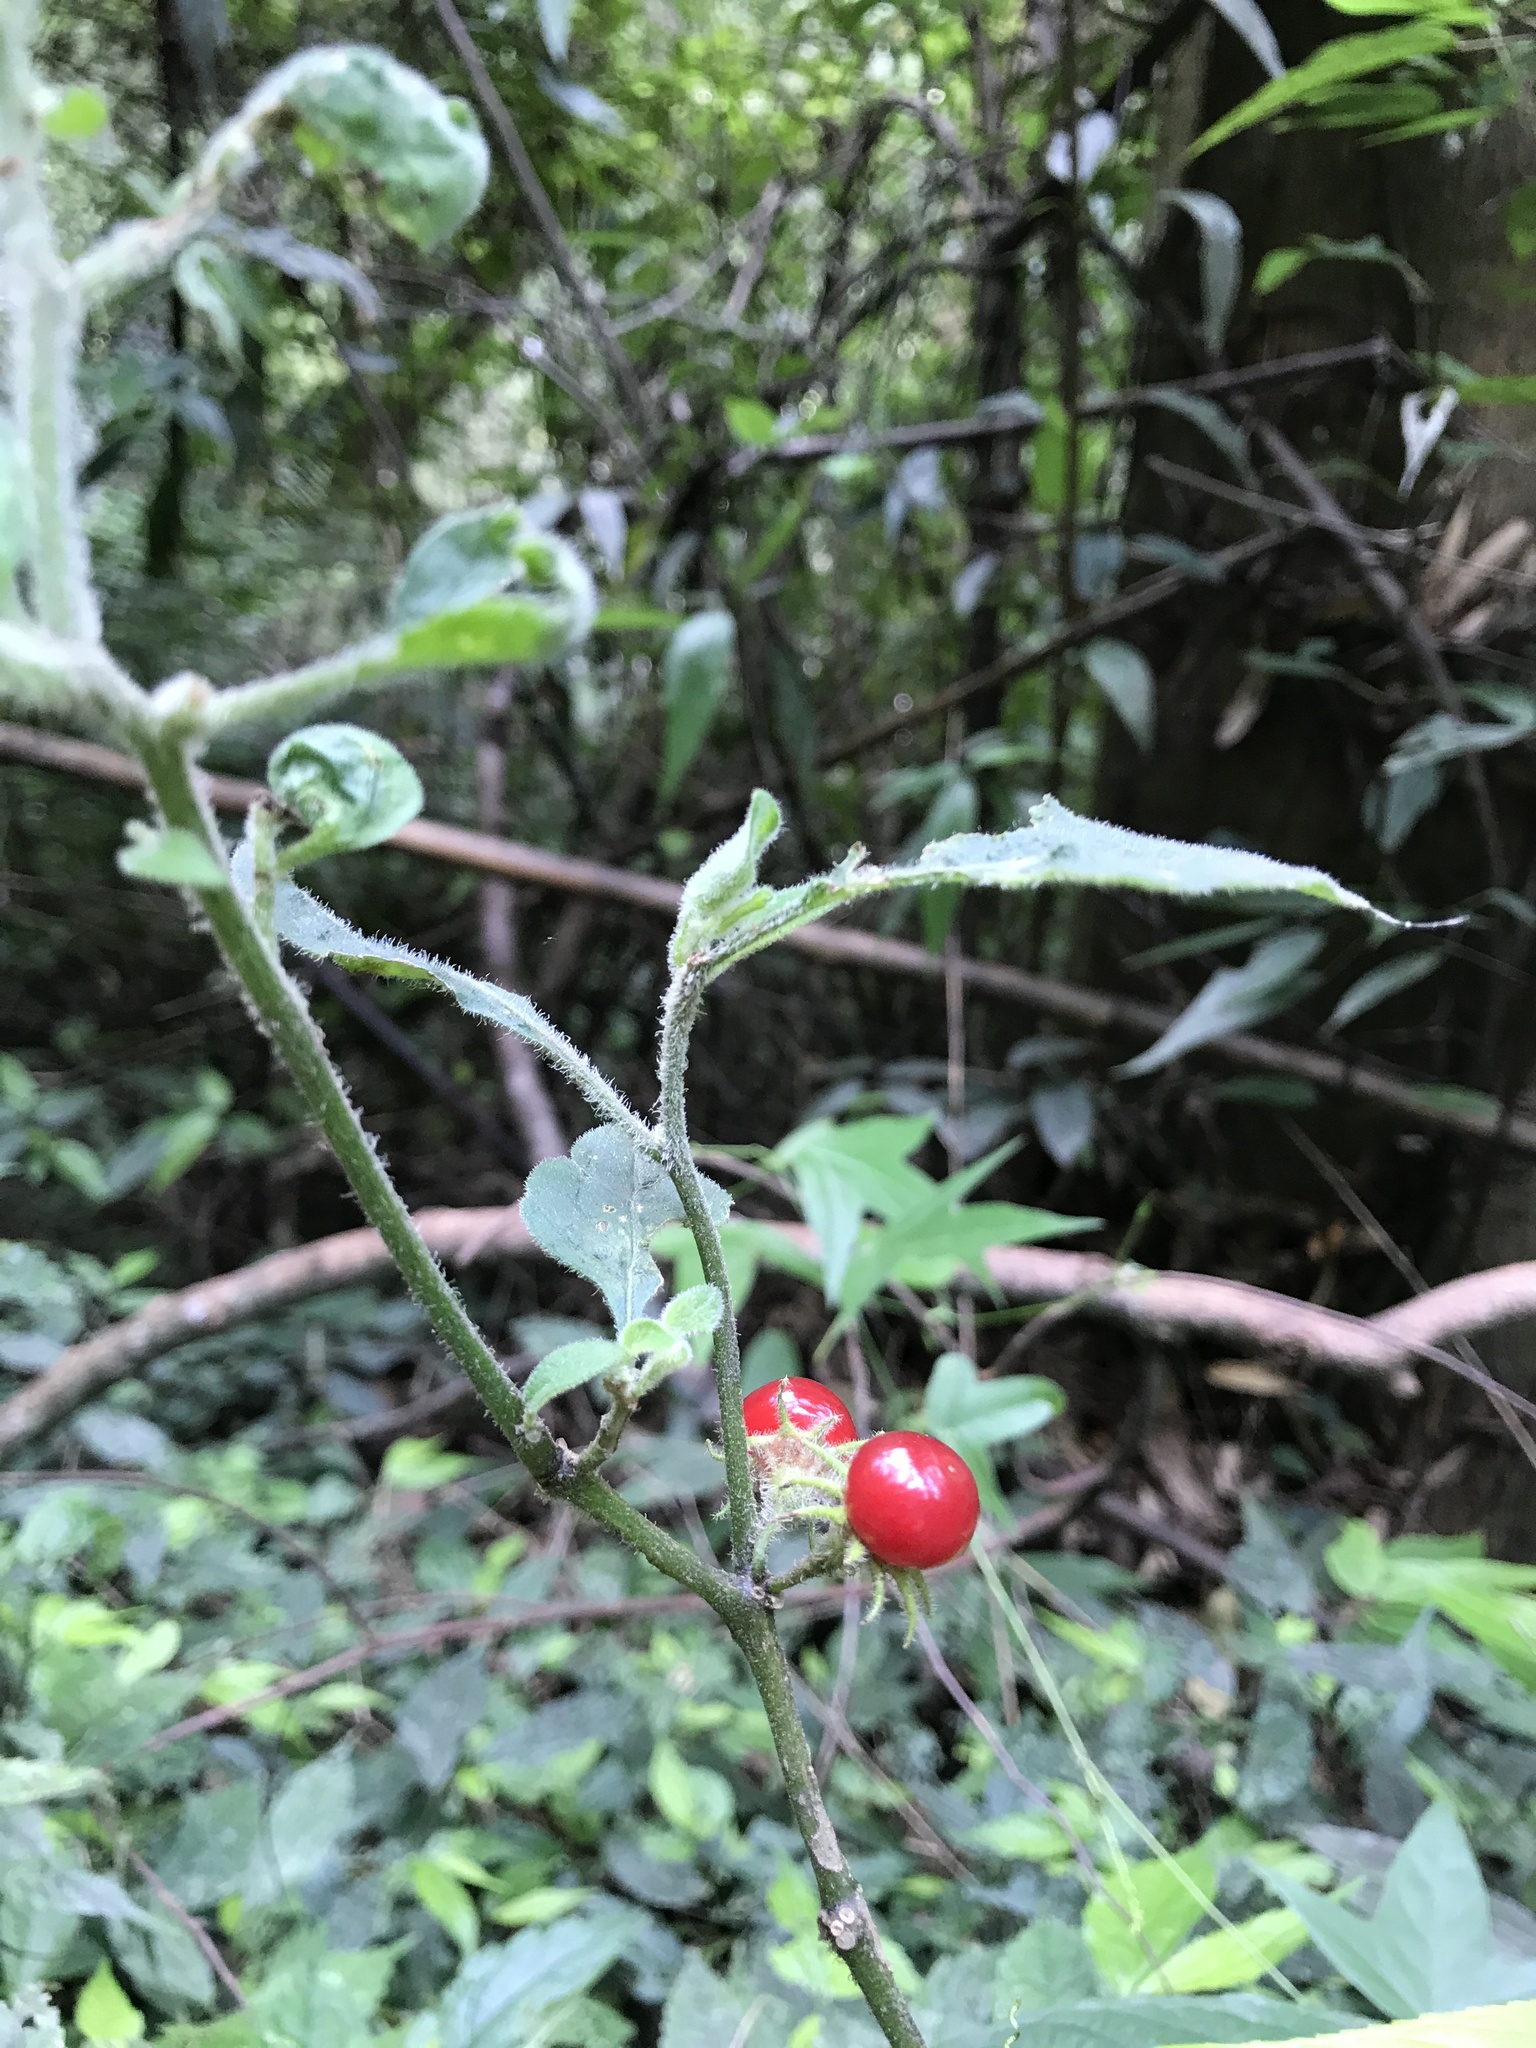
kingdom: Plantae
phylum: Tracheophyta
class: Magnoliopsida
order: Solanales
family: Solanaceae
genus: Lycianthes
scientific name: Lycianthes biflora
